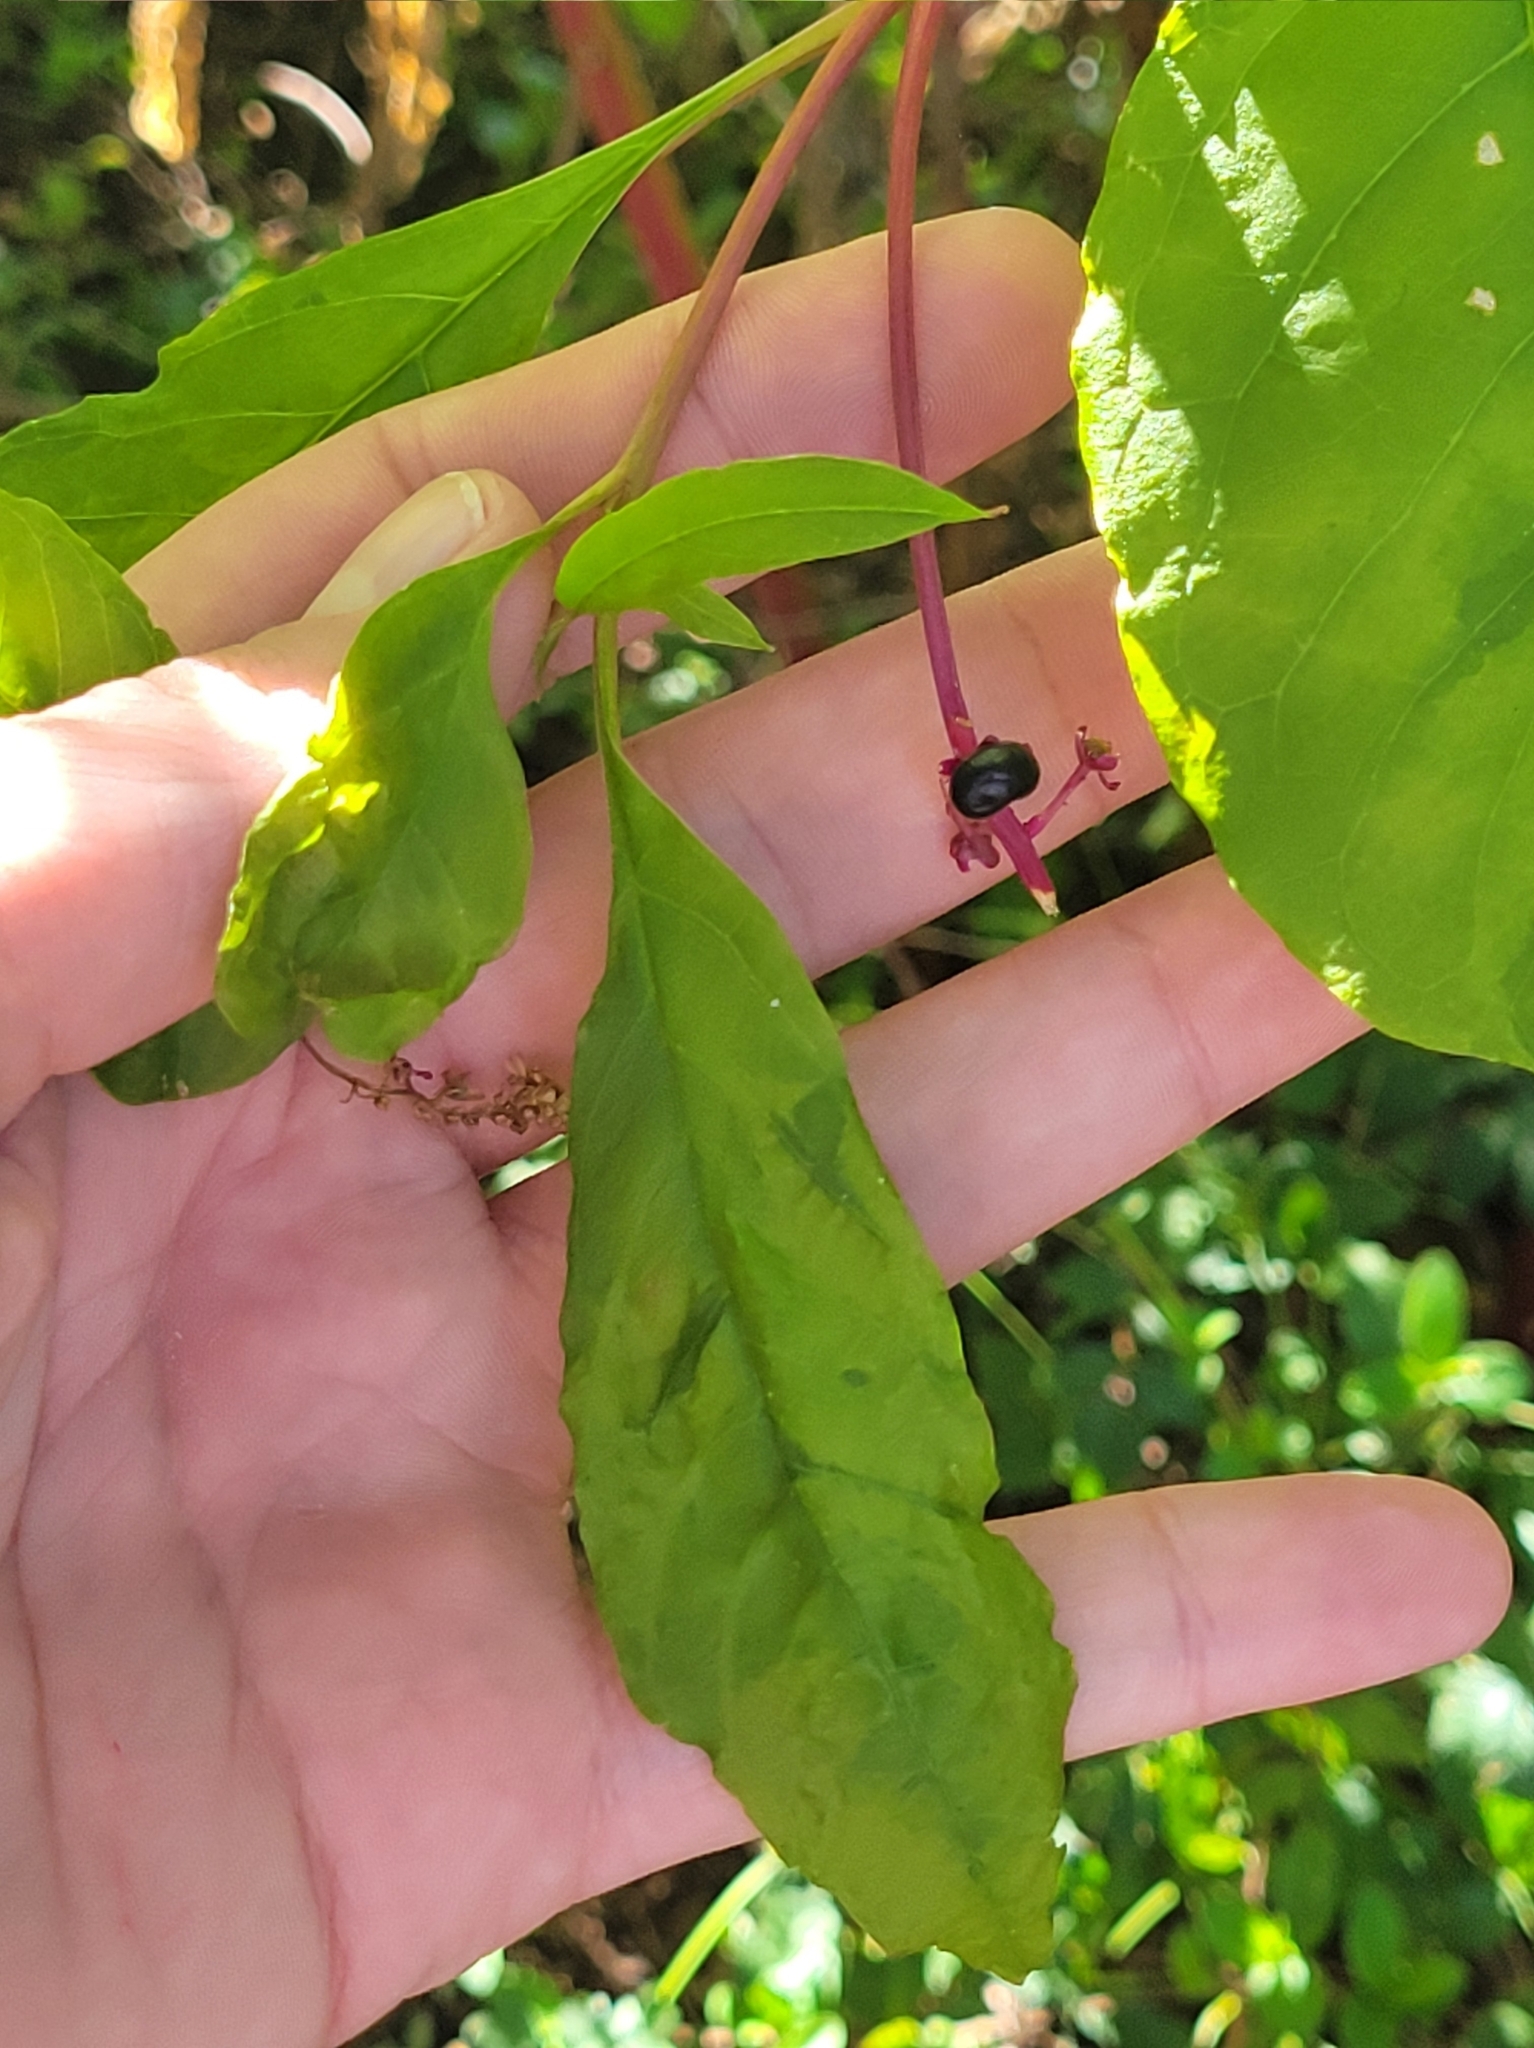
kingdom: Plantae
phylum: Tracheophyta
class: Magnoliopsida
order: Caryophyllales
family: Phytolaccaceae
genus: Phytolacca
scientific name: Phytolacca americana
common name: American pokeweed
